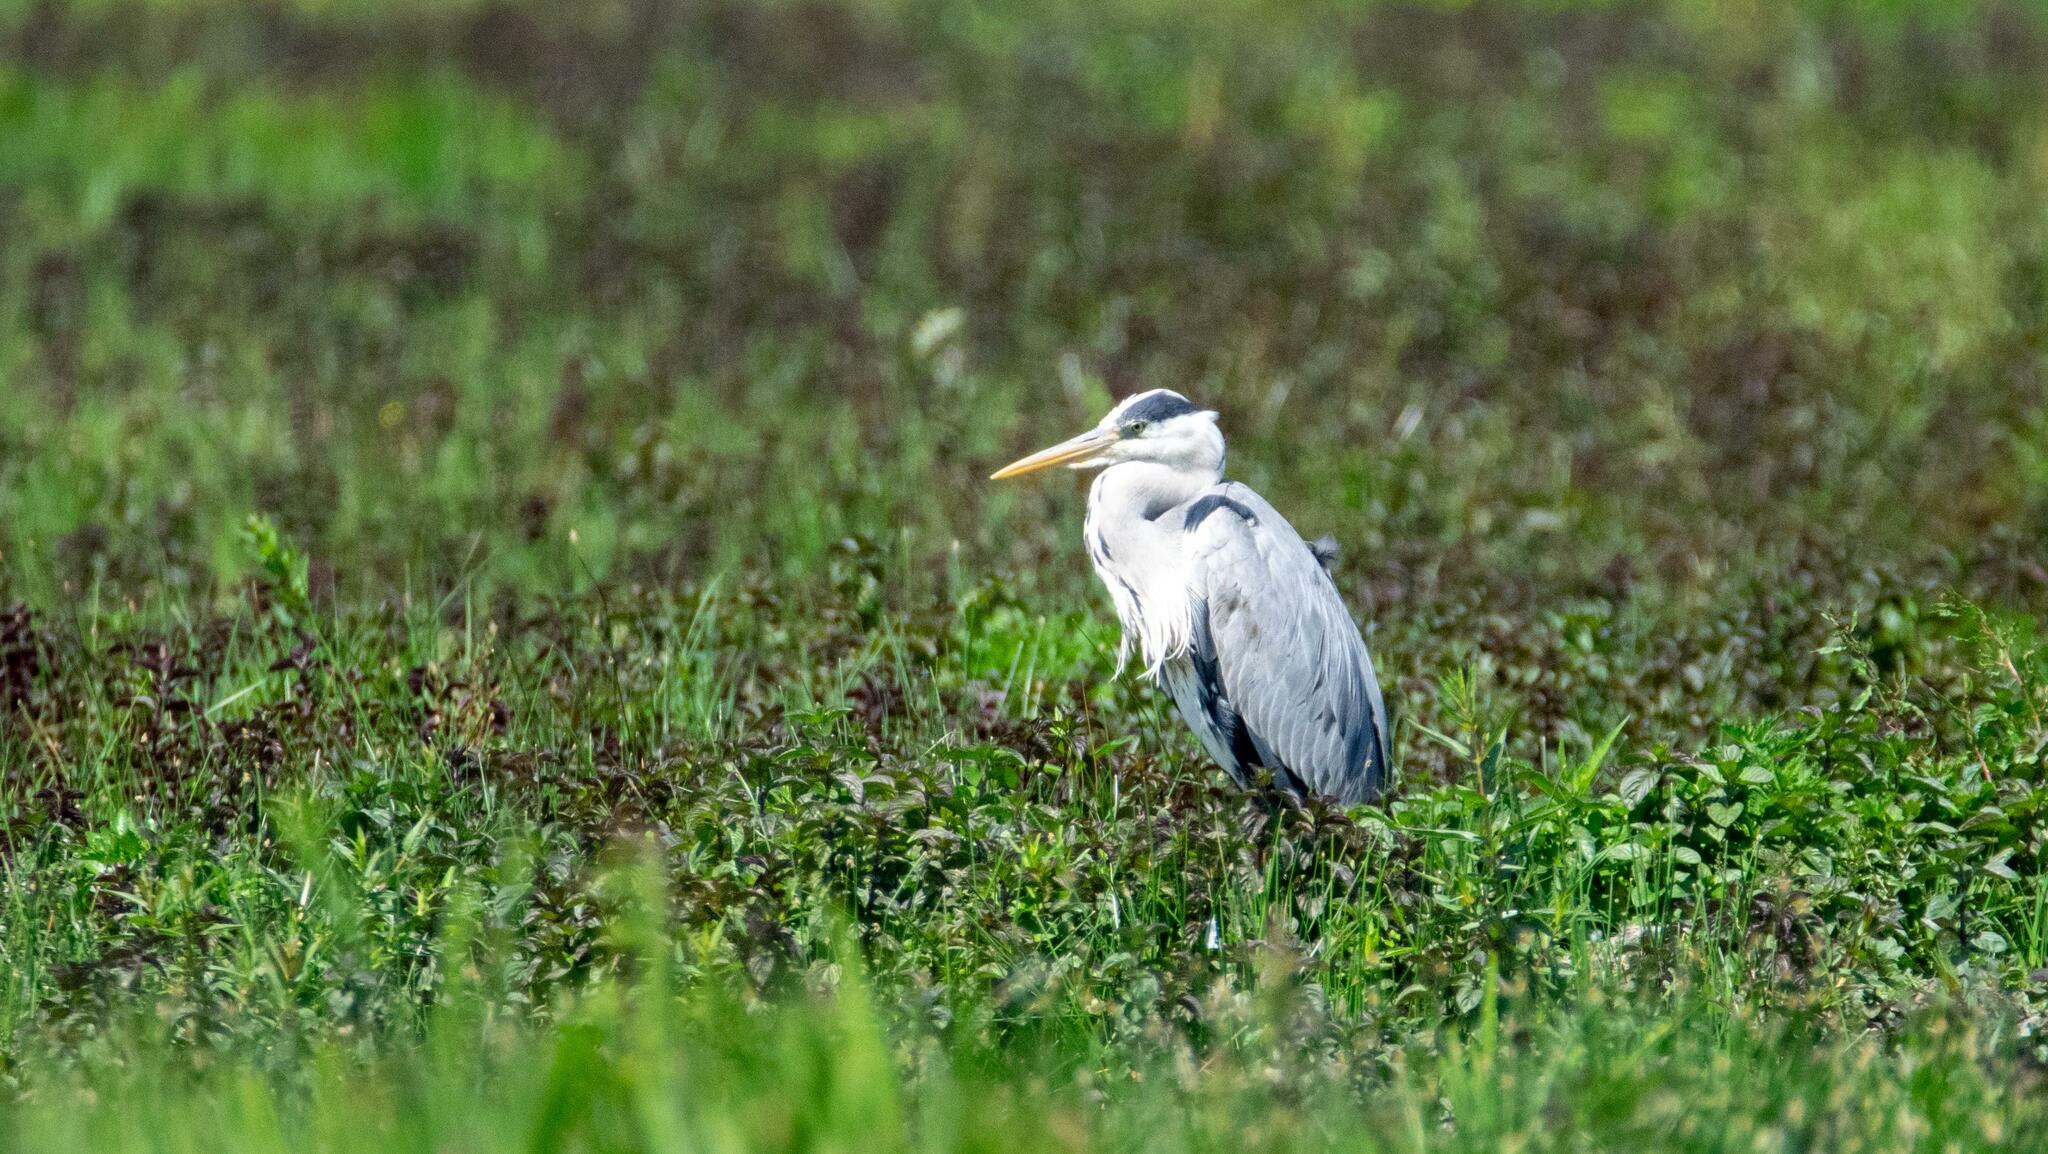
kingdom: Animalia
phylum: Chordata
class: Aves
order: Pelecaniformes
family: Ardeidae
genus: Ardea
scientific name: Ardea cinerea
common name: Grey heron
